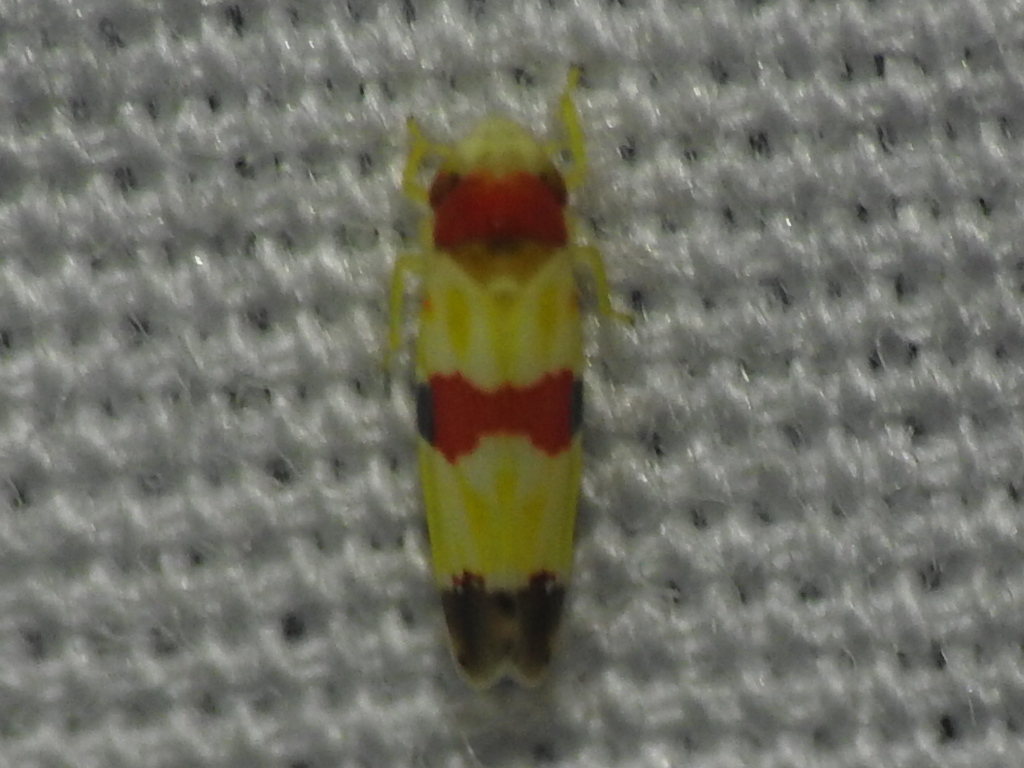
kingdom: Animalia
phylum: Arthropoda
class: Insecta
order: Hemiptera
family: Cicadellidae
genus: Erythroneura
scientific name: Erythroneura diva
